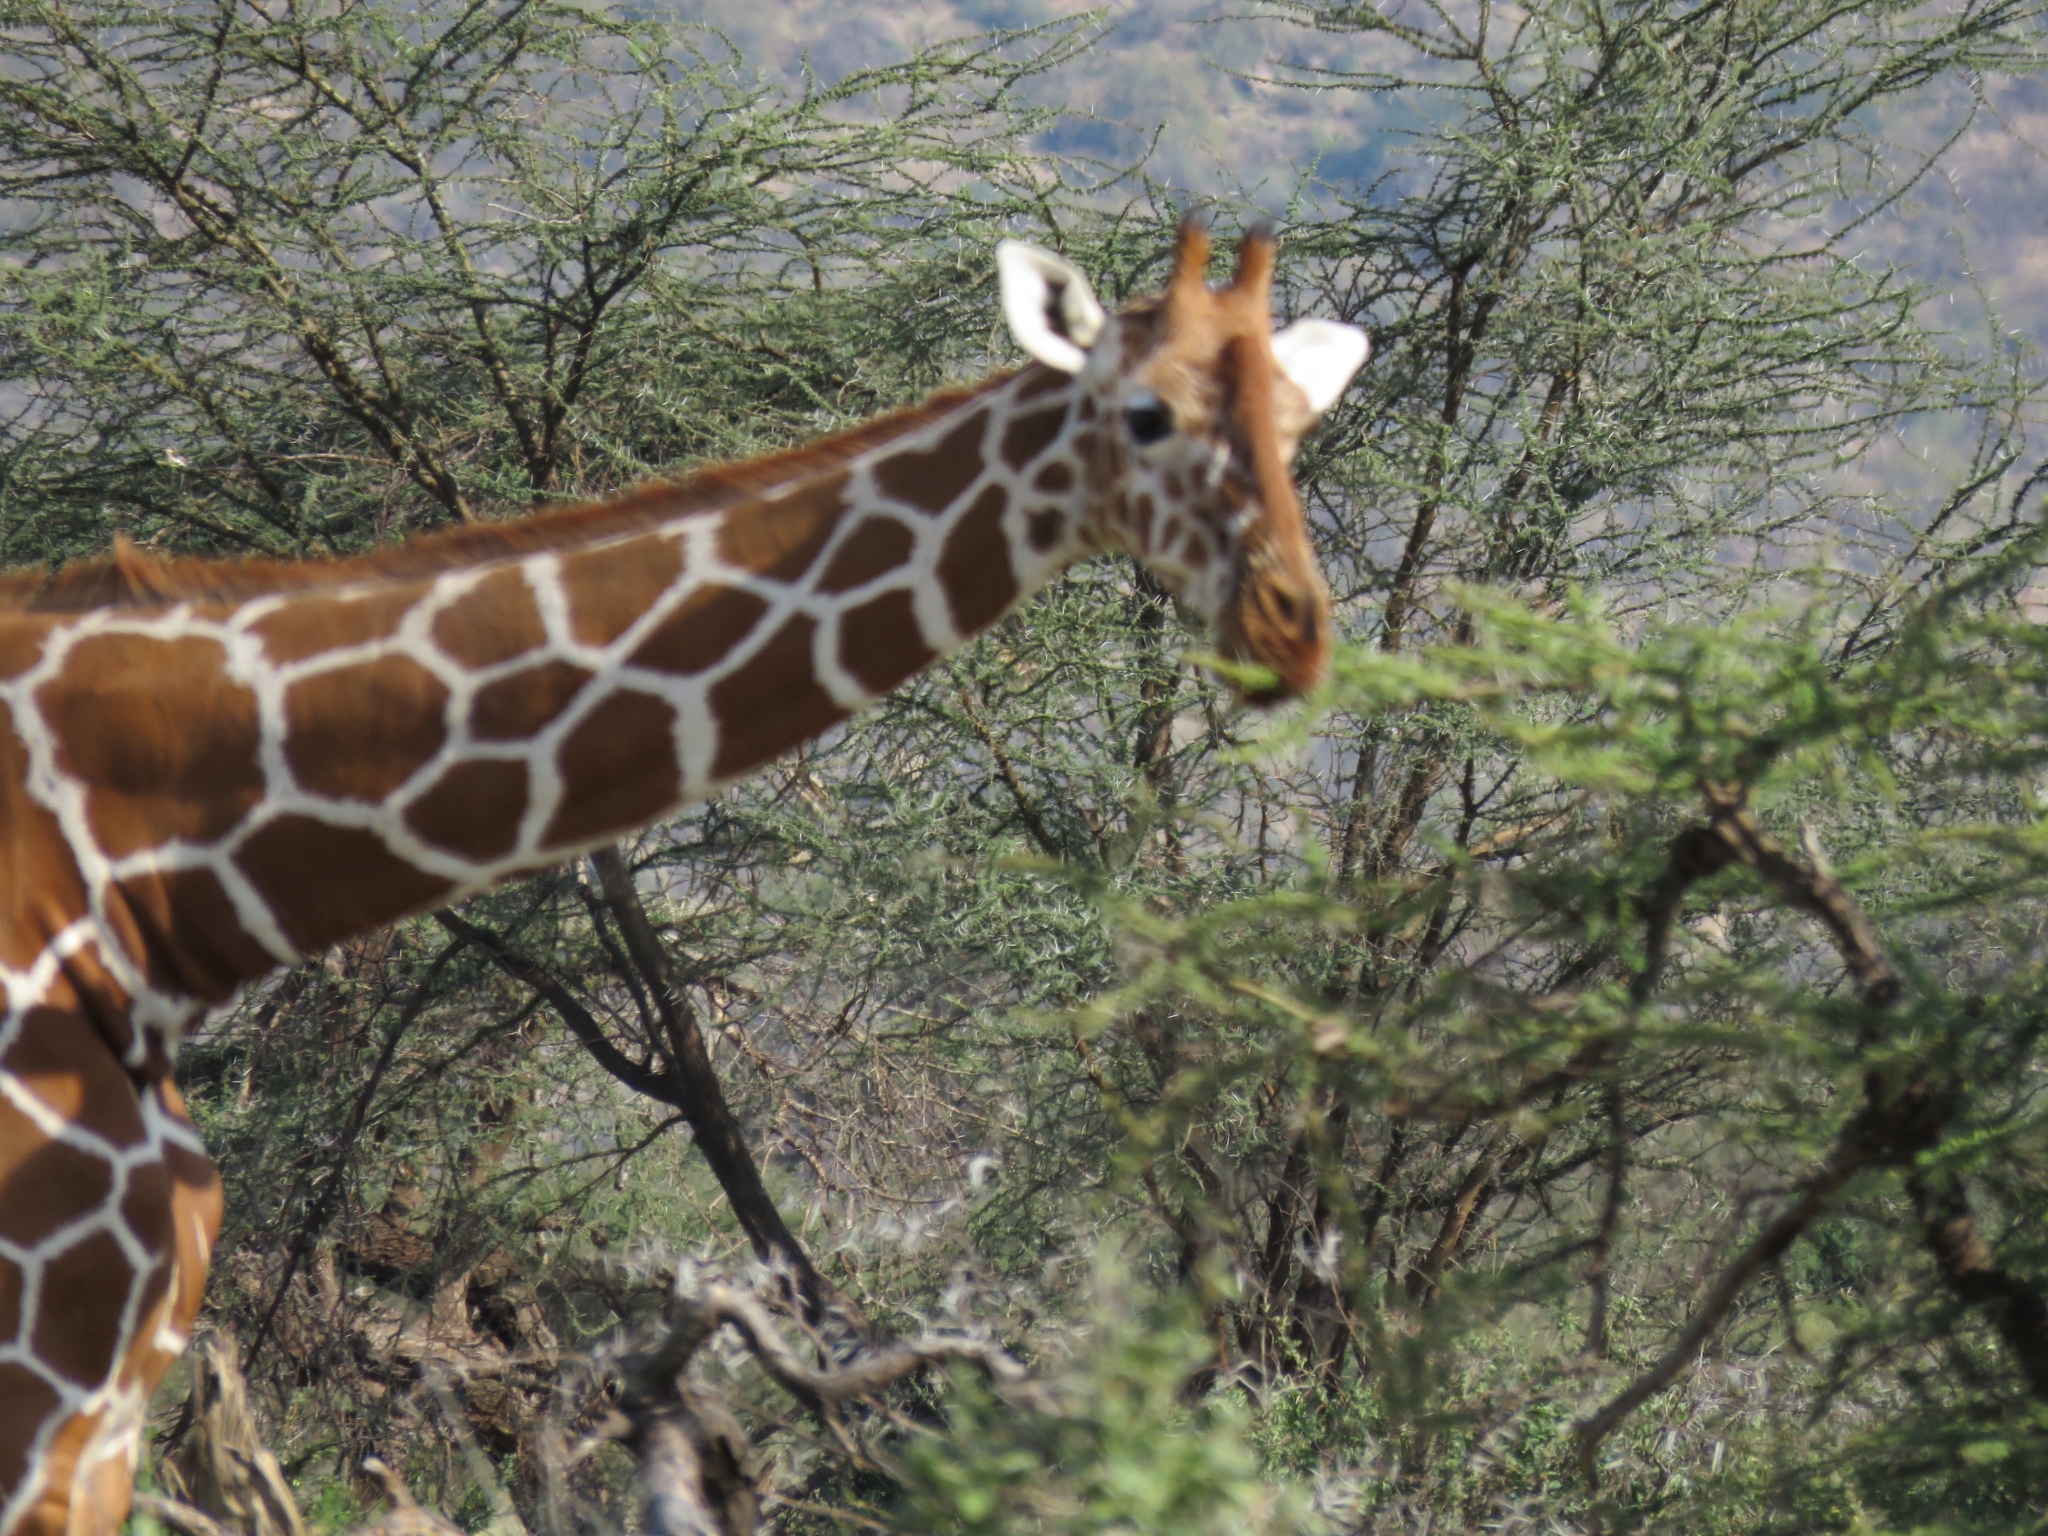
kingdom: Animalia
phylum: Chordata
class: Mammalia
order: Artiodactyla
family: Giraffidae
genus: Giraffa
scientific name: Giraffa reticulata
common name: Reticulated giraffe
